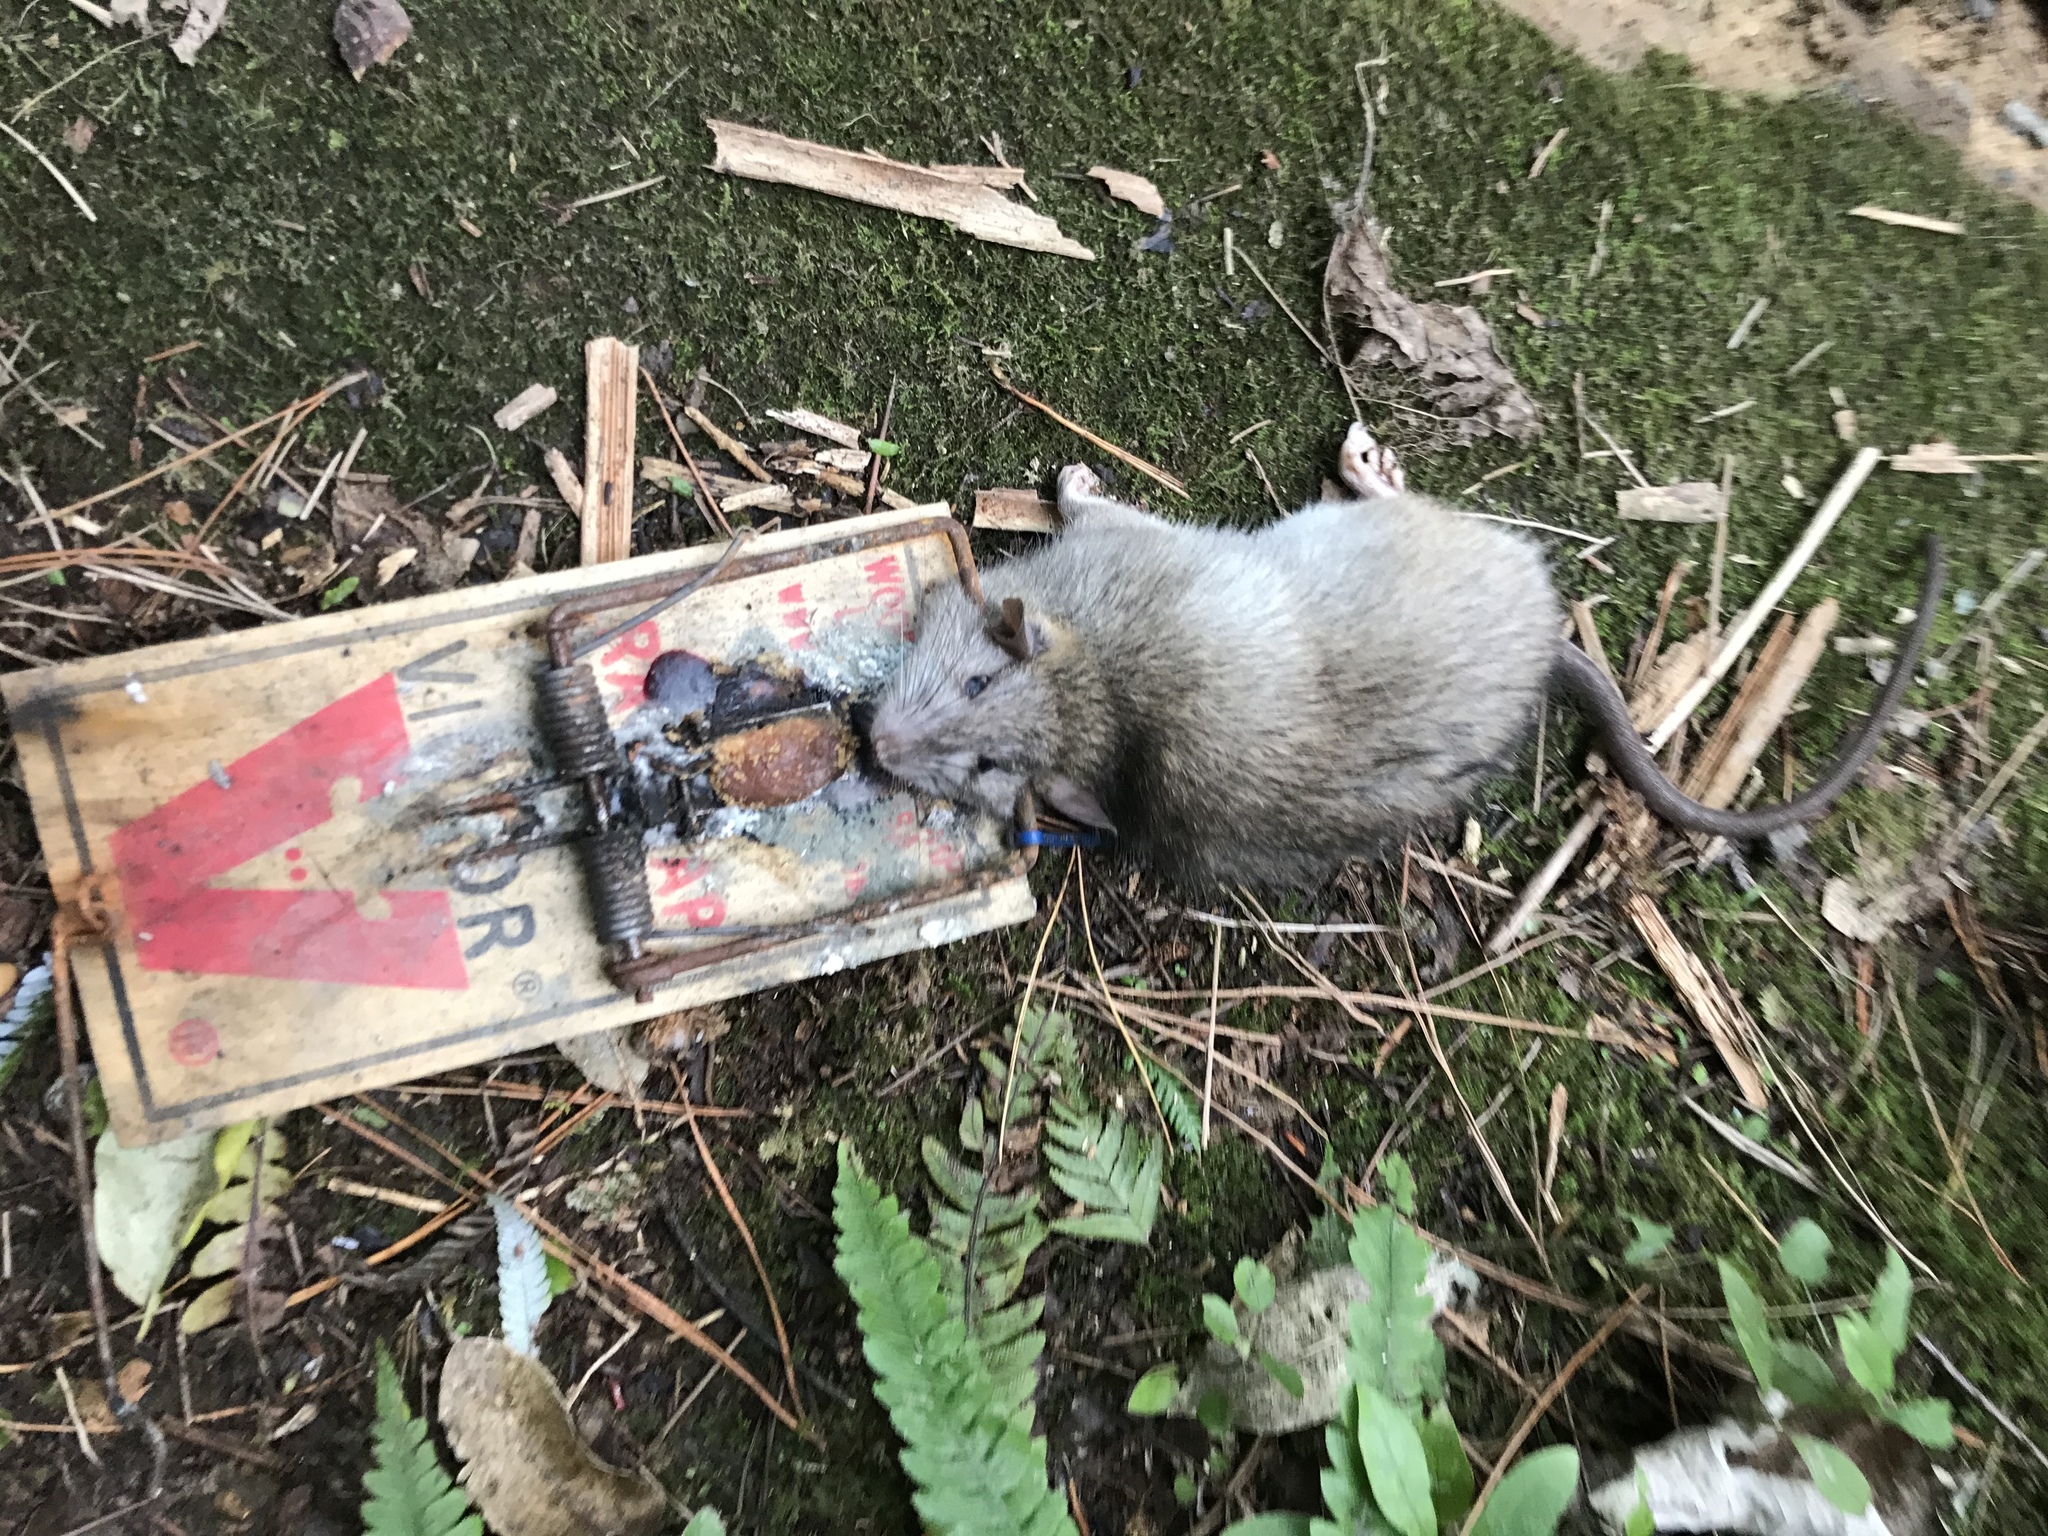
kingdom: Animalia
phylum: Chordata
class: Mammalia
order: Rodentia
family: Muridae
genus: Rattus
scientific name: Rattus rattus
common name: Black rat
